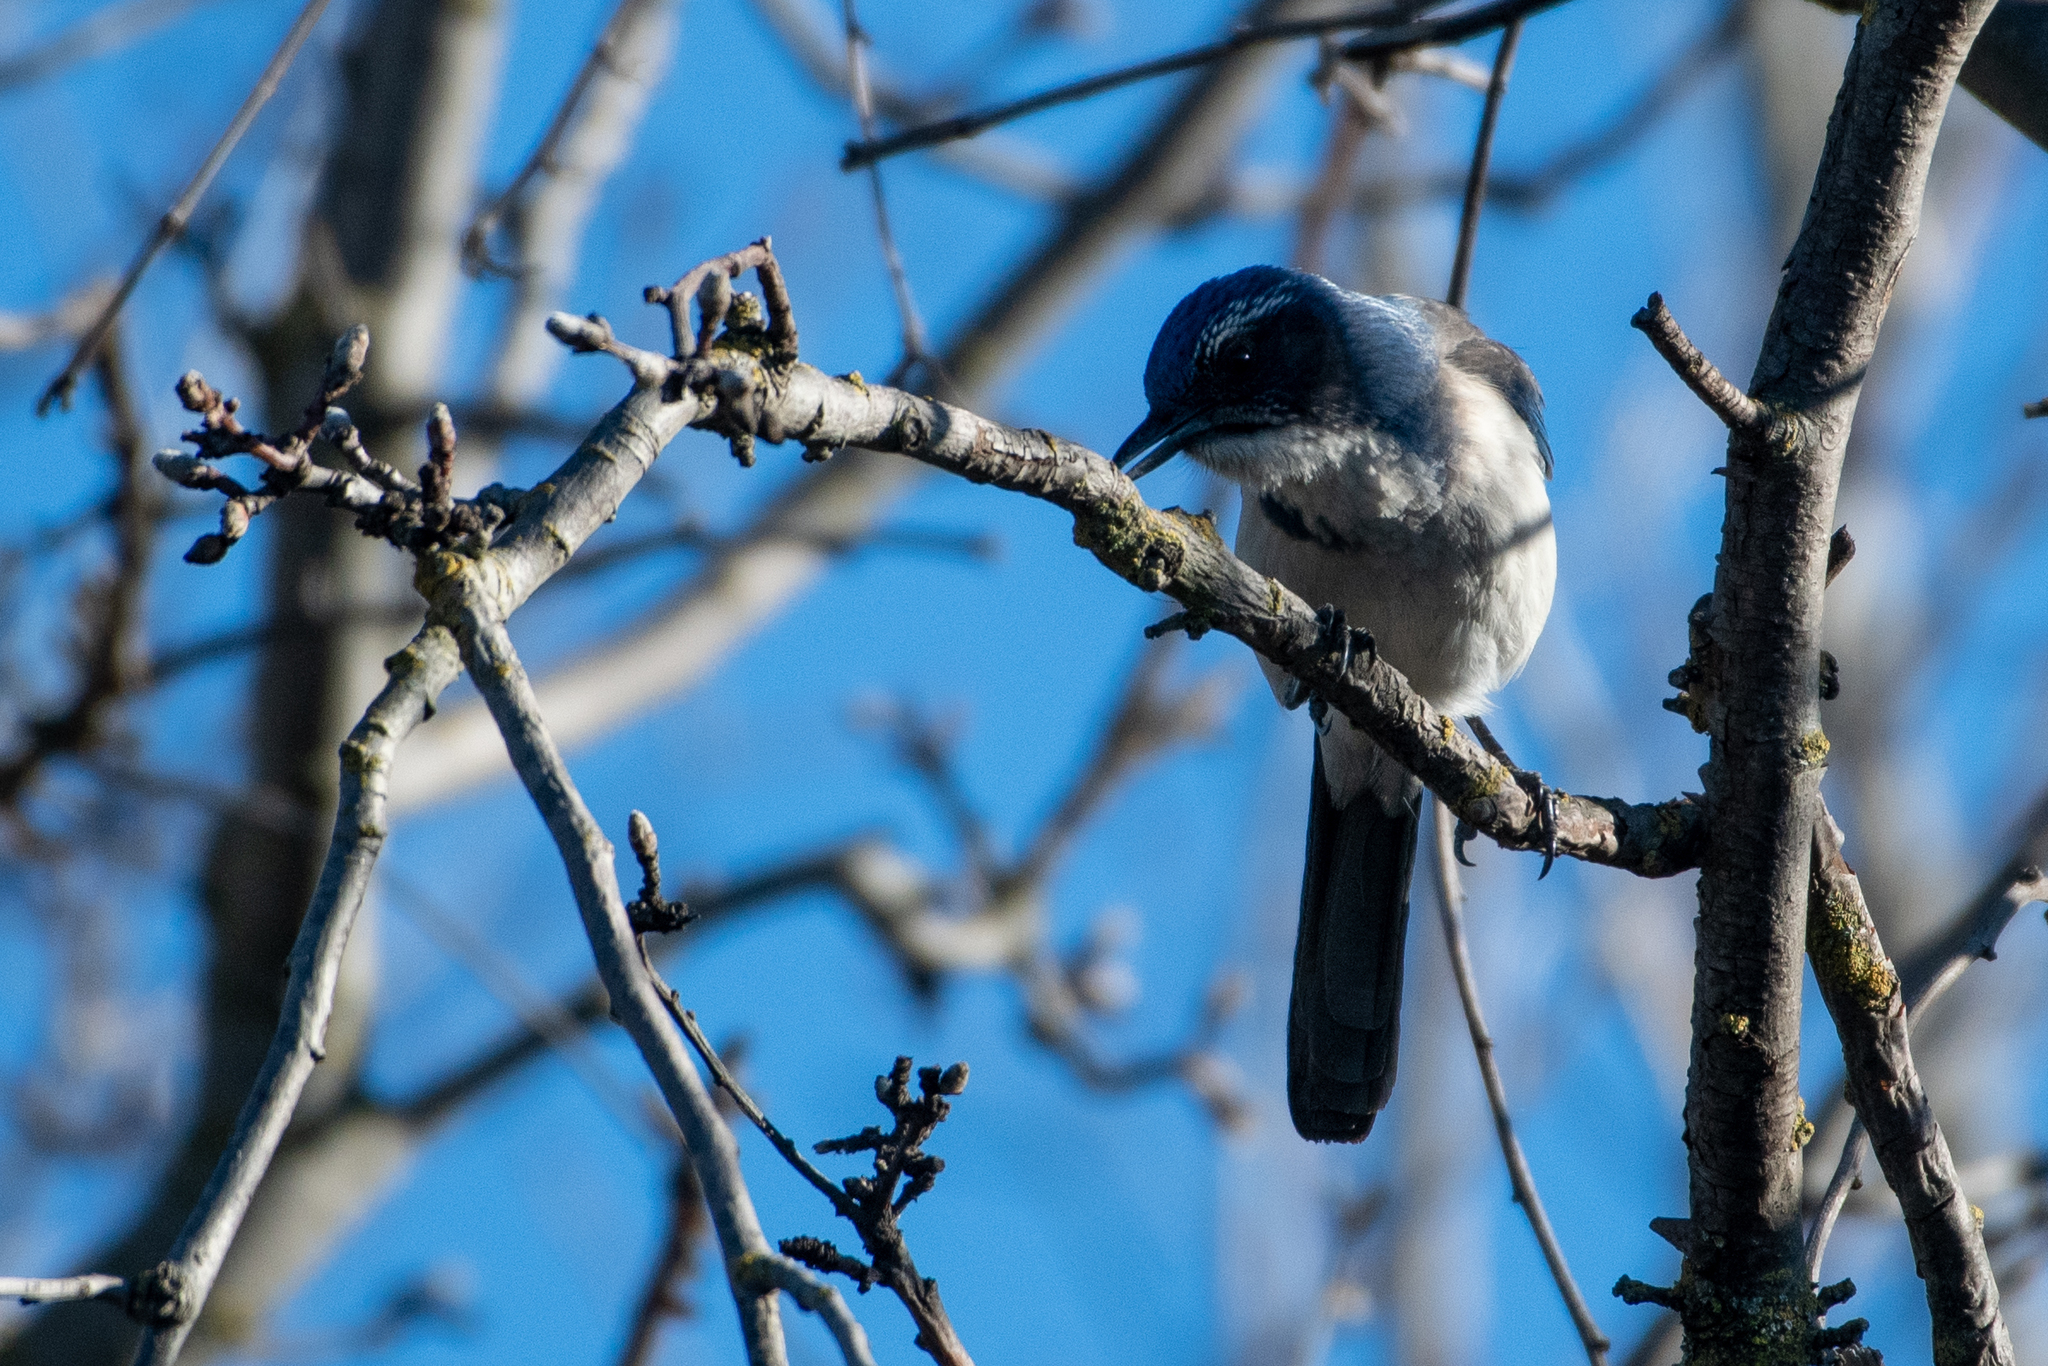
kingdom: Animalia
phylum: Chordata
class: Aves
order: Passeriformes
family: Corvidae
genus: Aphelocoma
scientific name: Aphelocoma californica
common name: California scrub-jay
